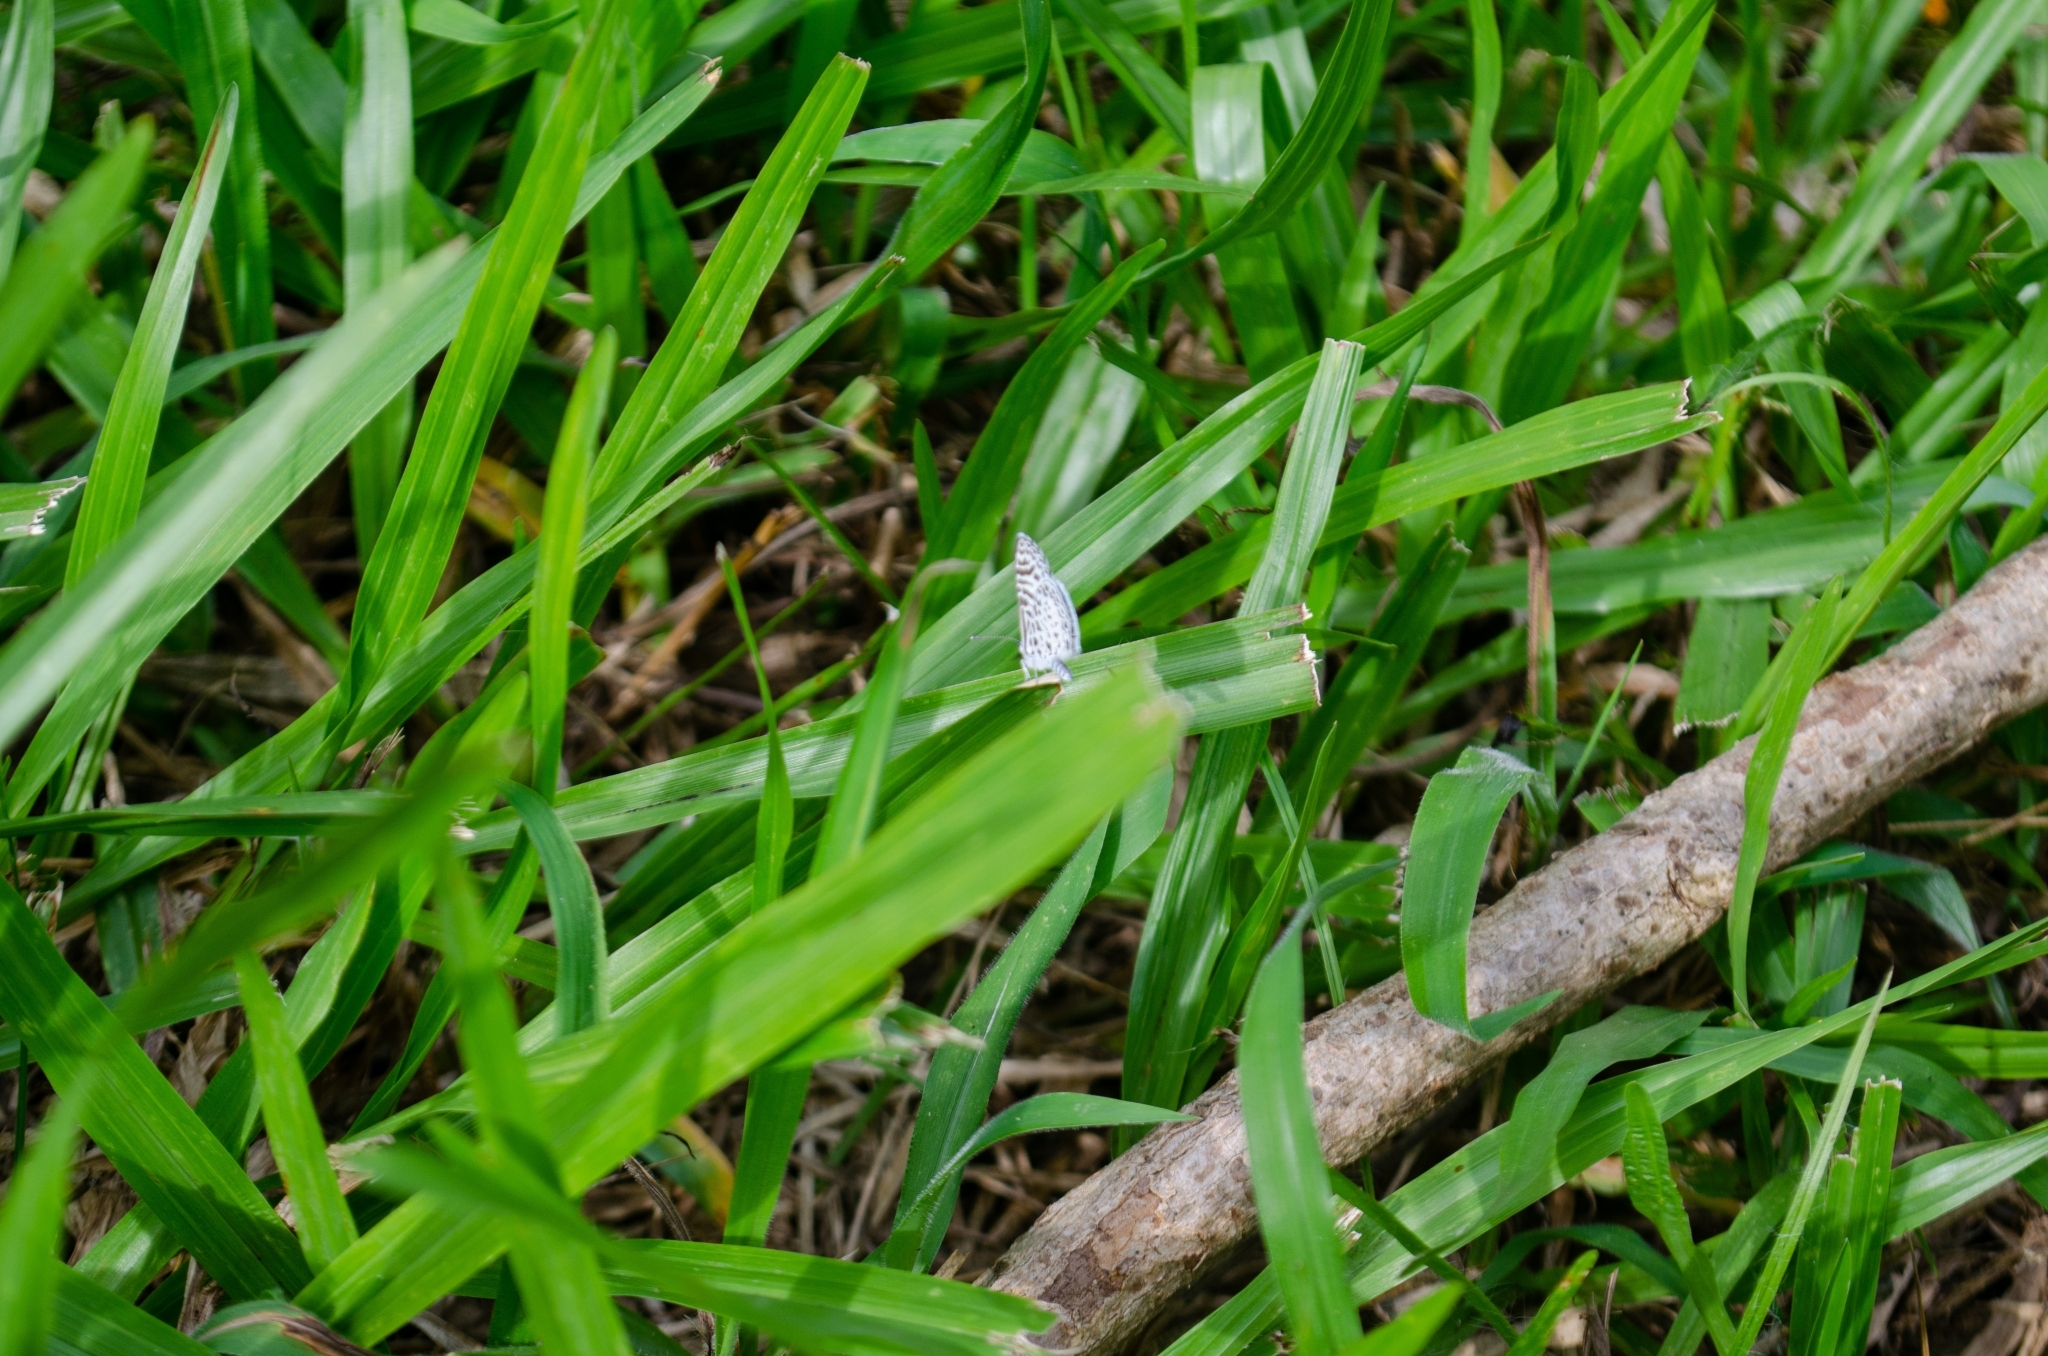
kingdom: Animalia
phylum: Arthropoda
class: Insecta
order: Lepidoptera
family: Lycaenidae
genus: Leptotes
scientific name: Leptotes cassius
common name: Cassius blue
